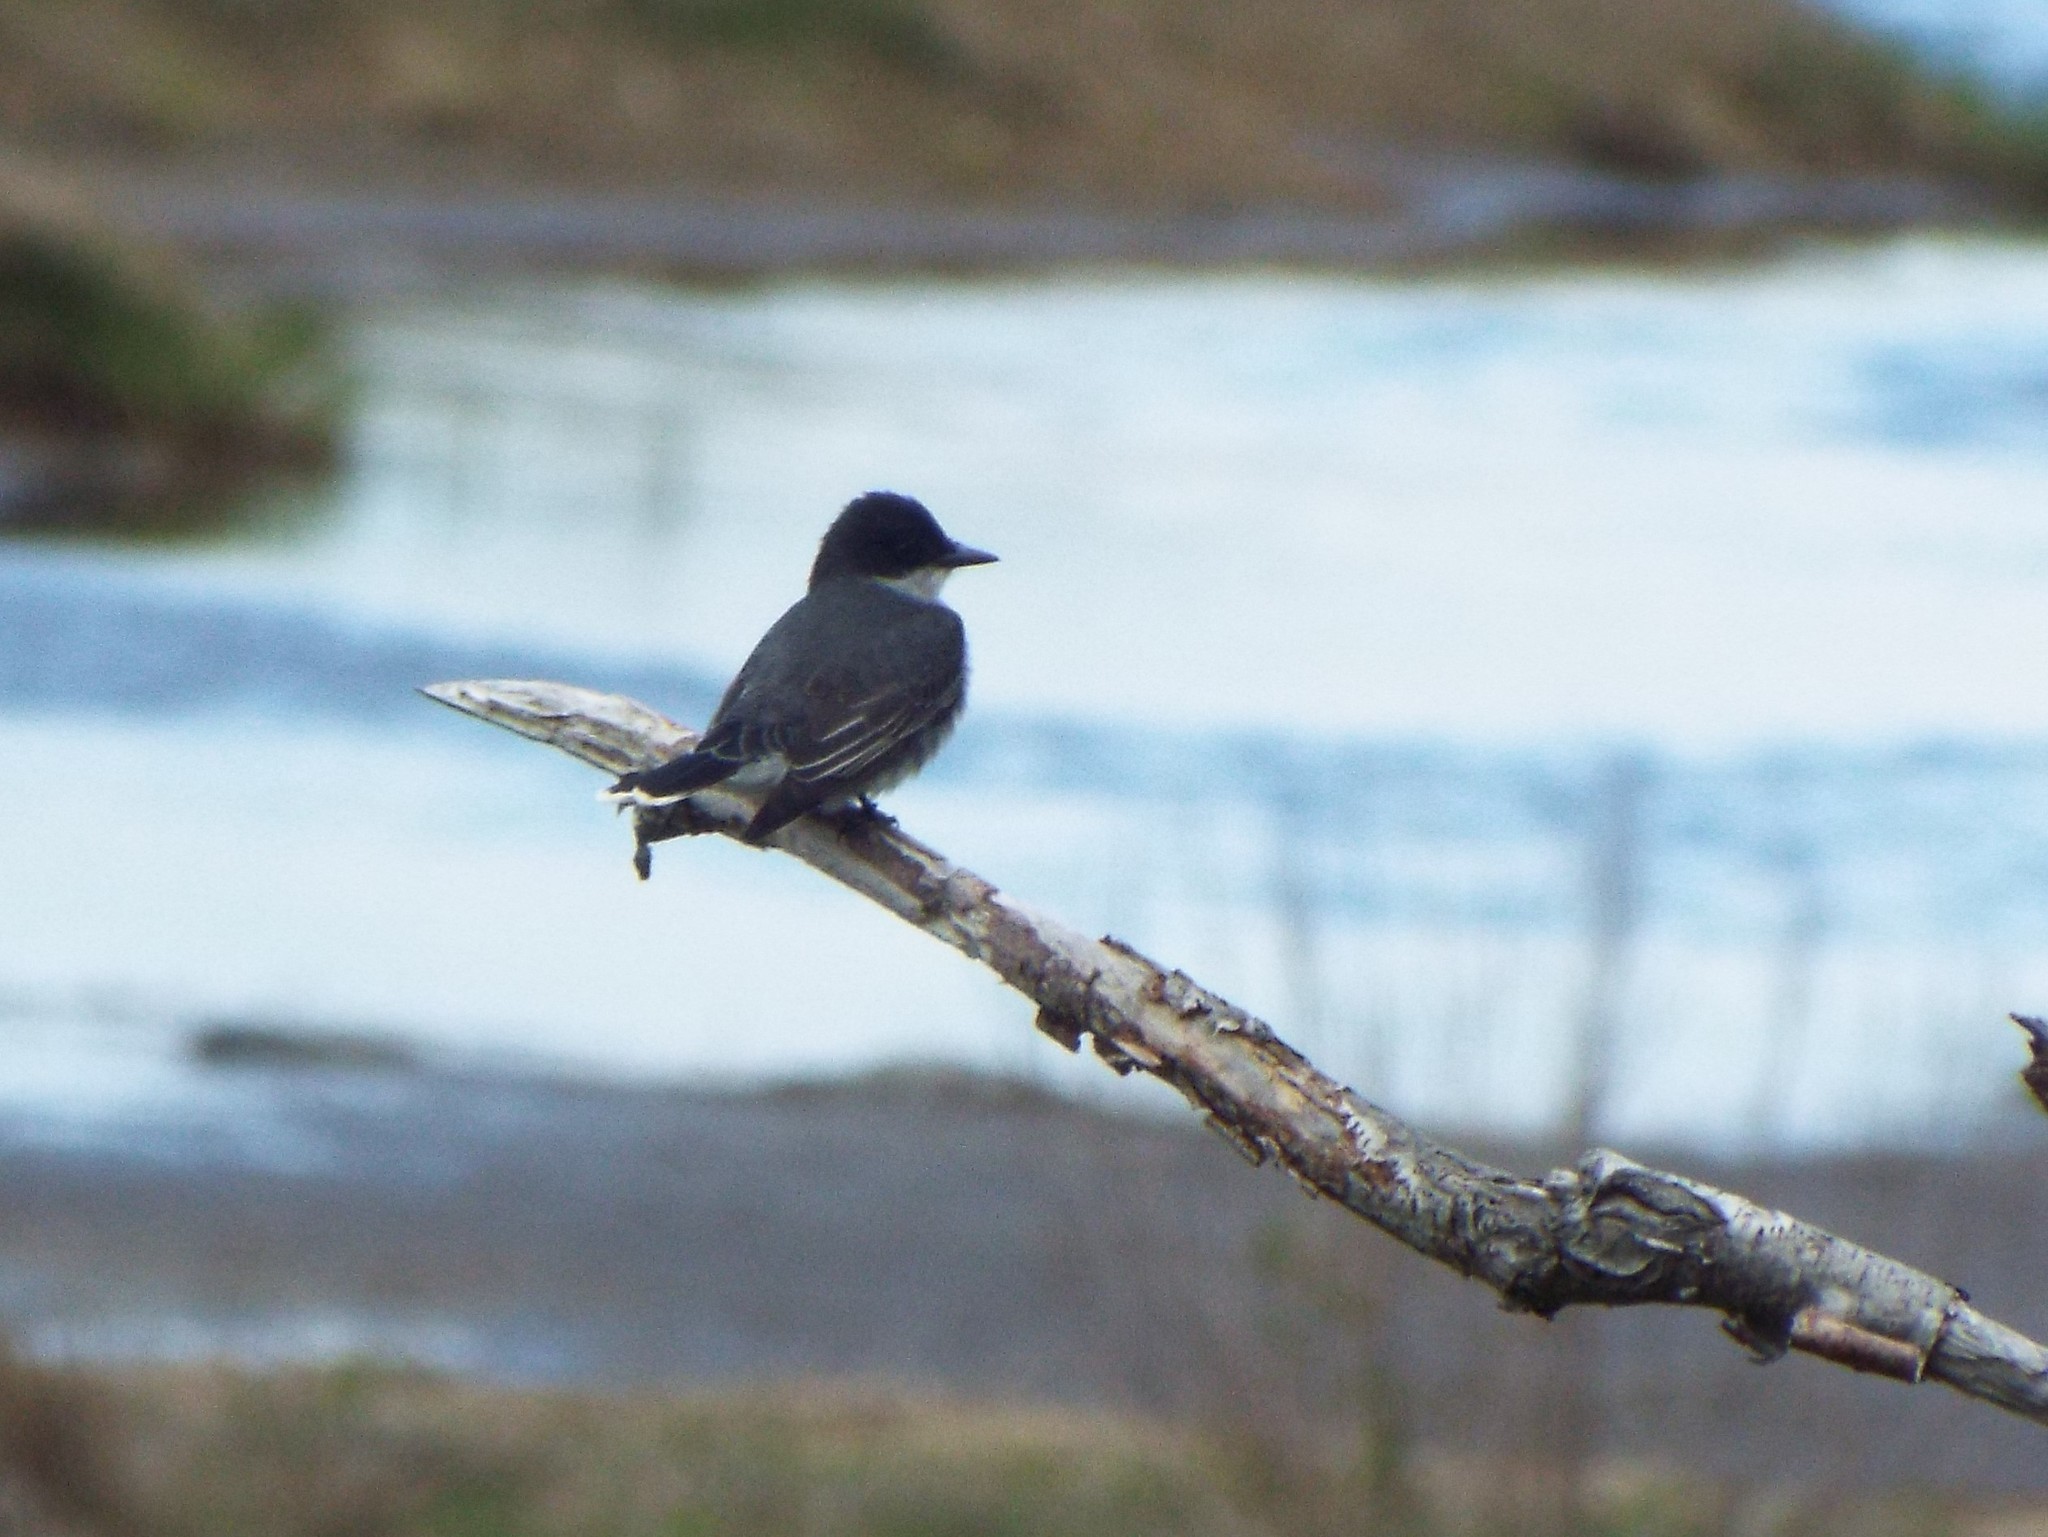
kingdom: Animalia
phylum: Chordata
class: Aves
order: Passeriformes
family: Tyrannidae
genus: Tyrannus
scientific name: Tyrannus tyrannus
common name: Eastern kingbird
